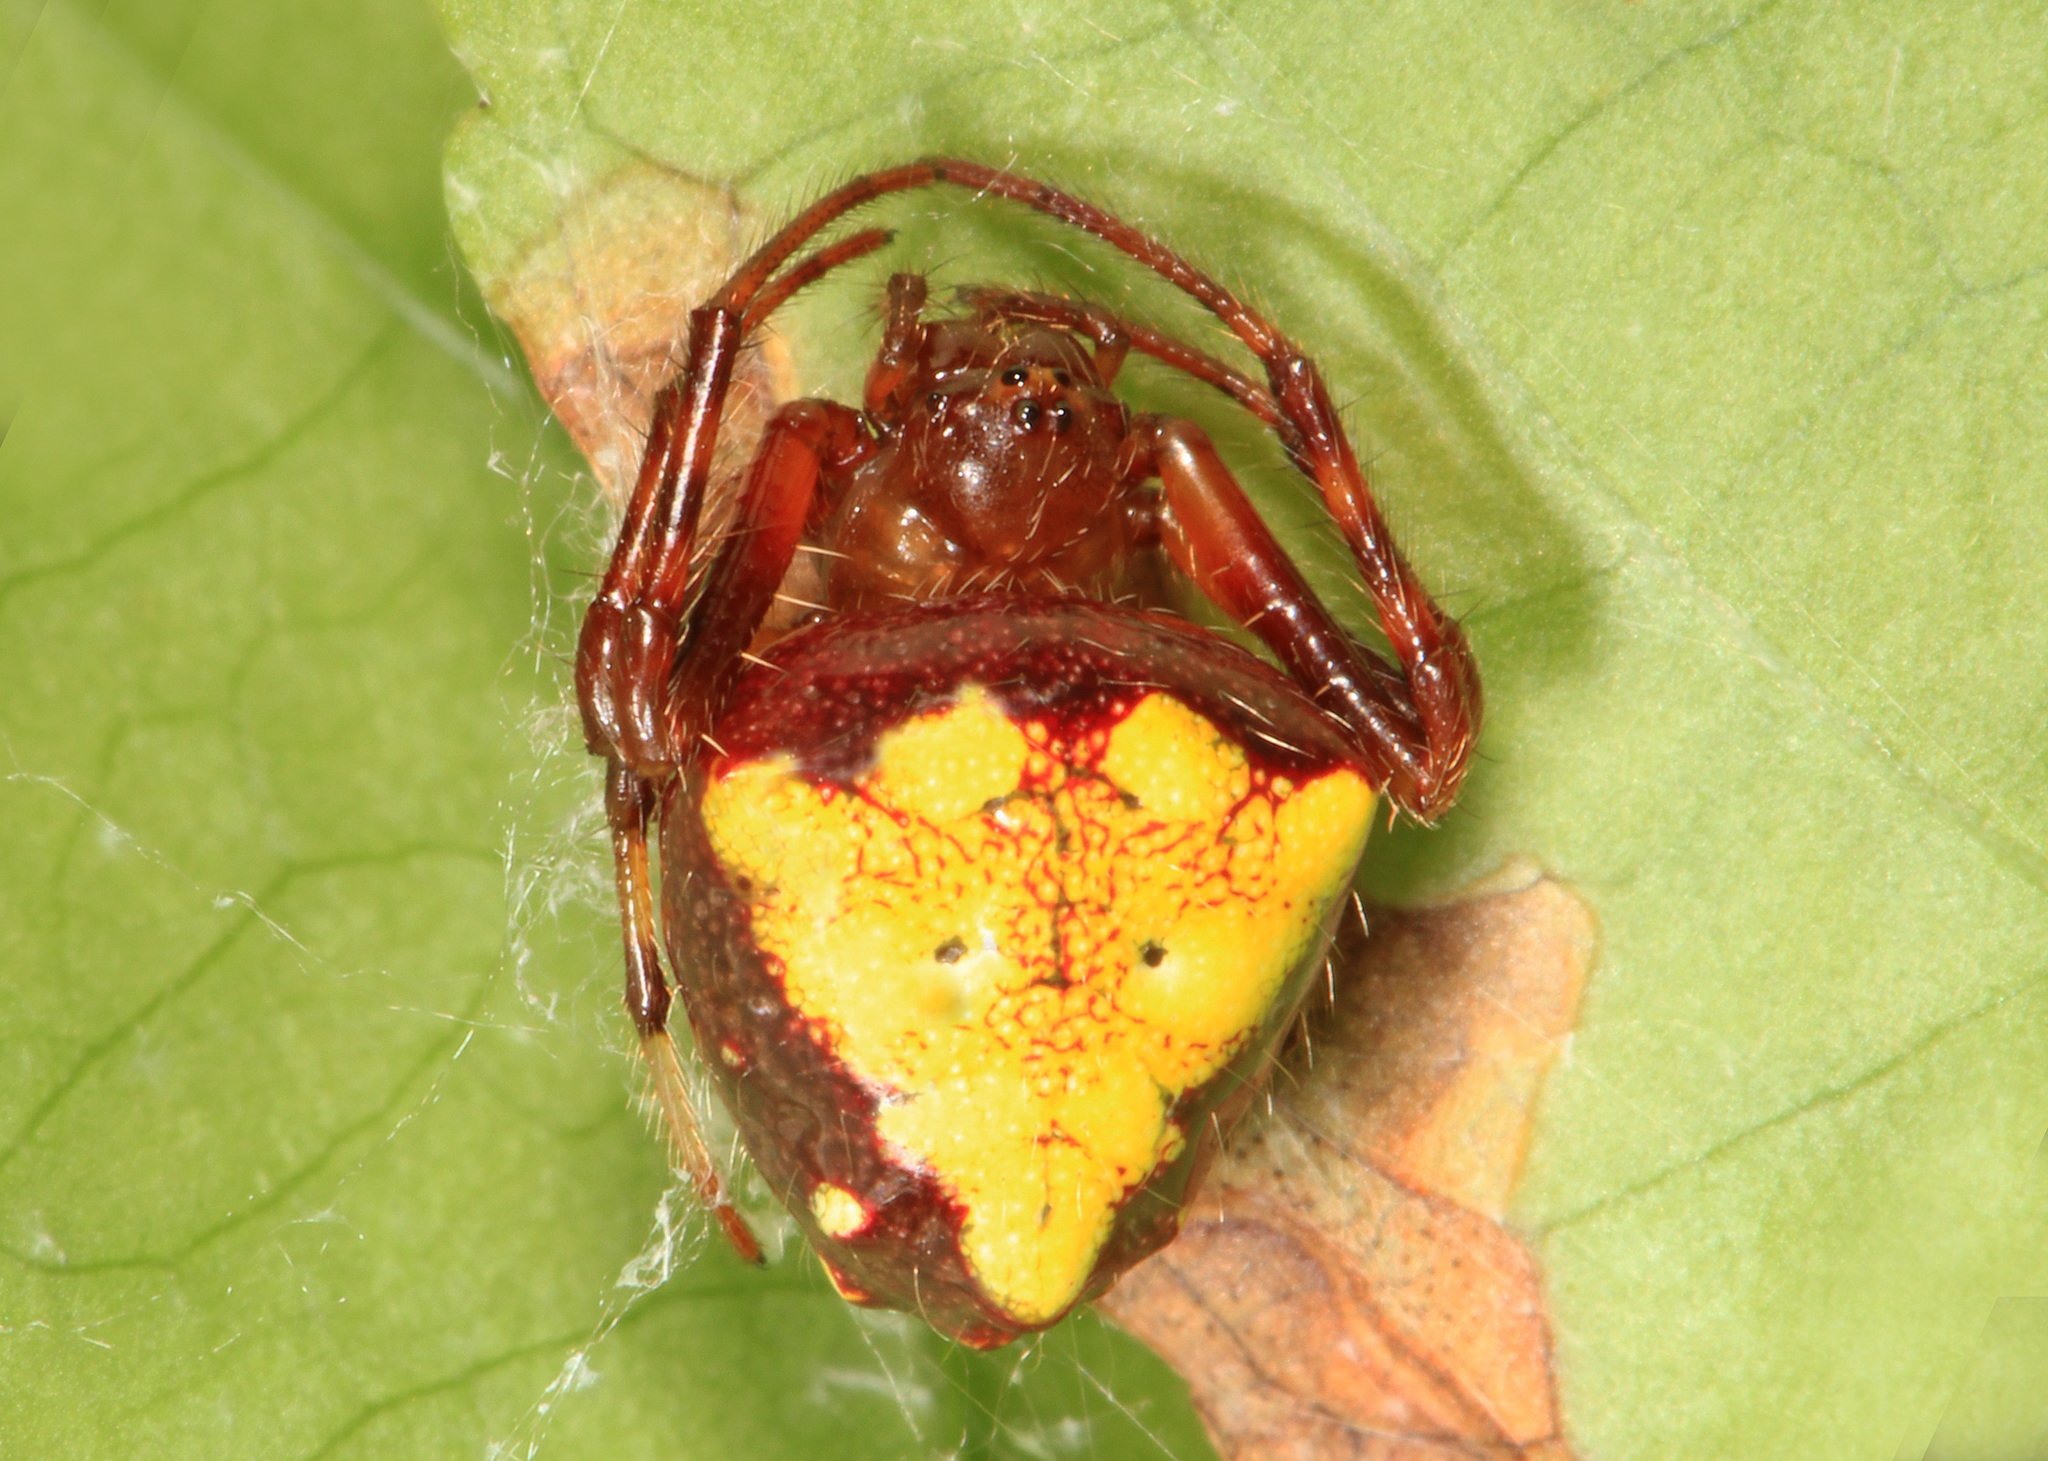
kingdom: Animalia
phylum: Arthropoda
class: Arachnida
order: Araneae
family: Araneidae
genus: Verrucosa
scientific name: Verrucosa arenata
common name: Orb weavers
